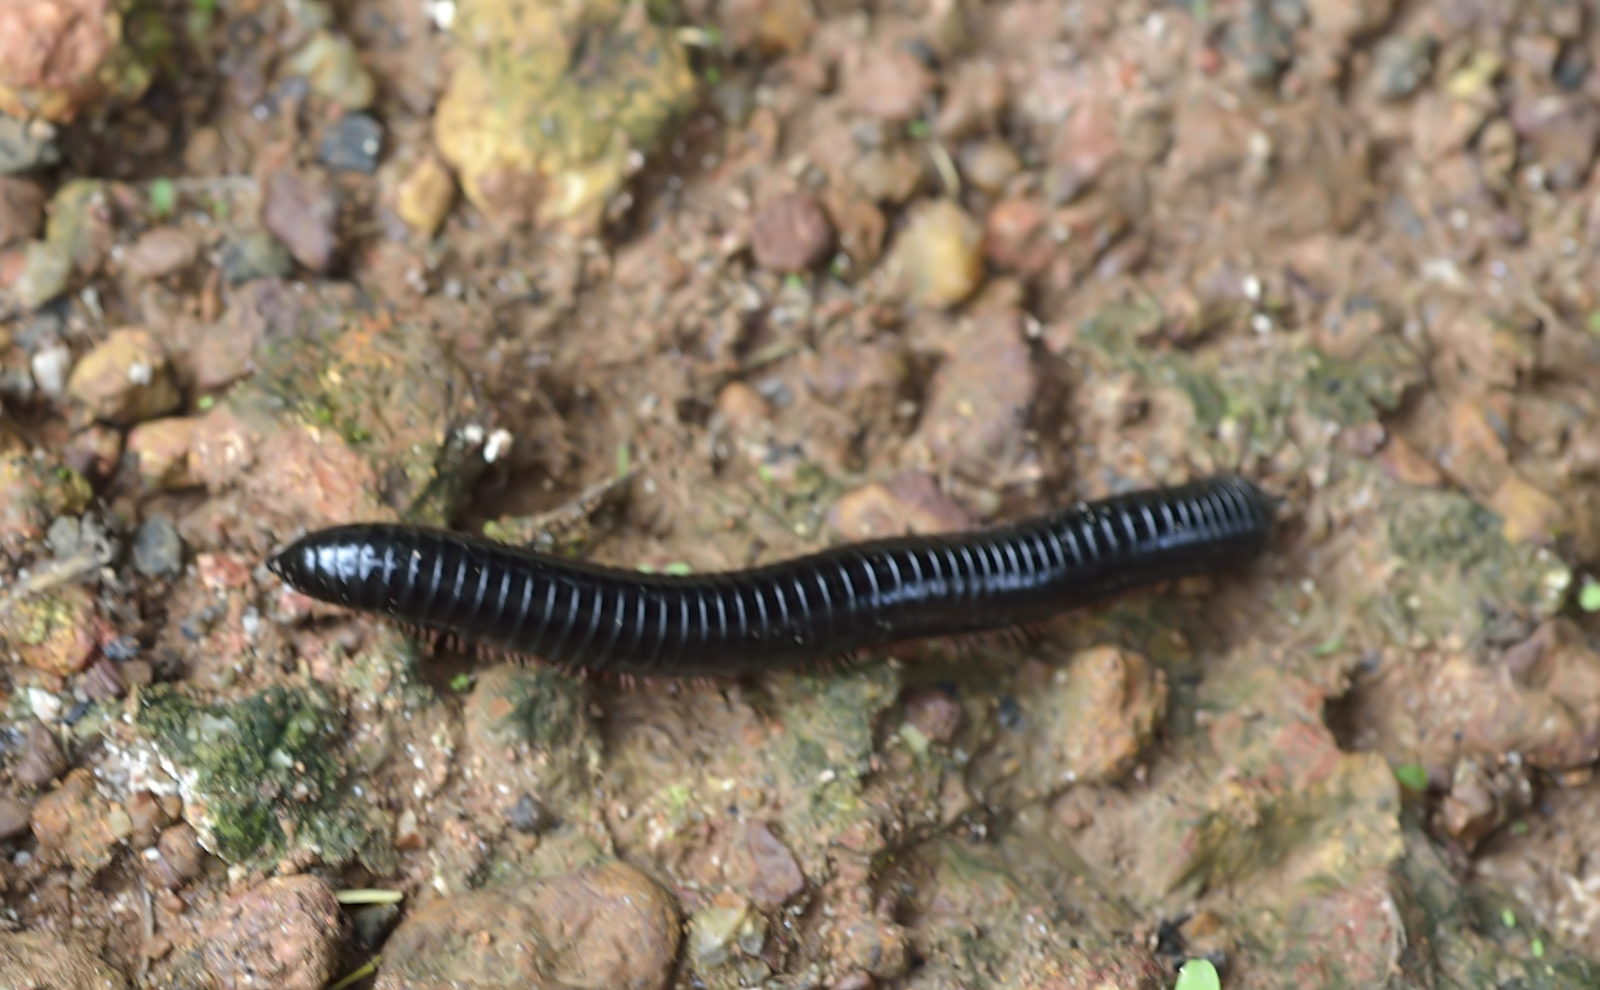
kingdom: Animalia
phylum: Arthropoda
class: Diplopoda
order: Spirostreptida
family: Harpagophoridae
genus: Phyllogonostreptus
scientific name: Phyllogonostreptus nigrolabiatus
